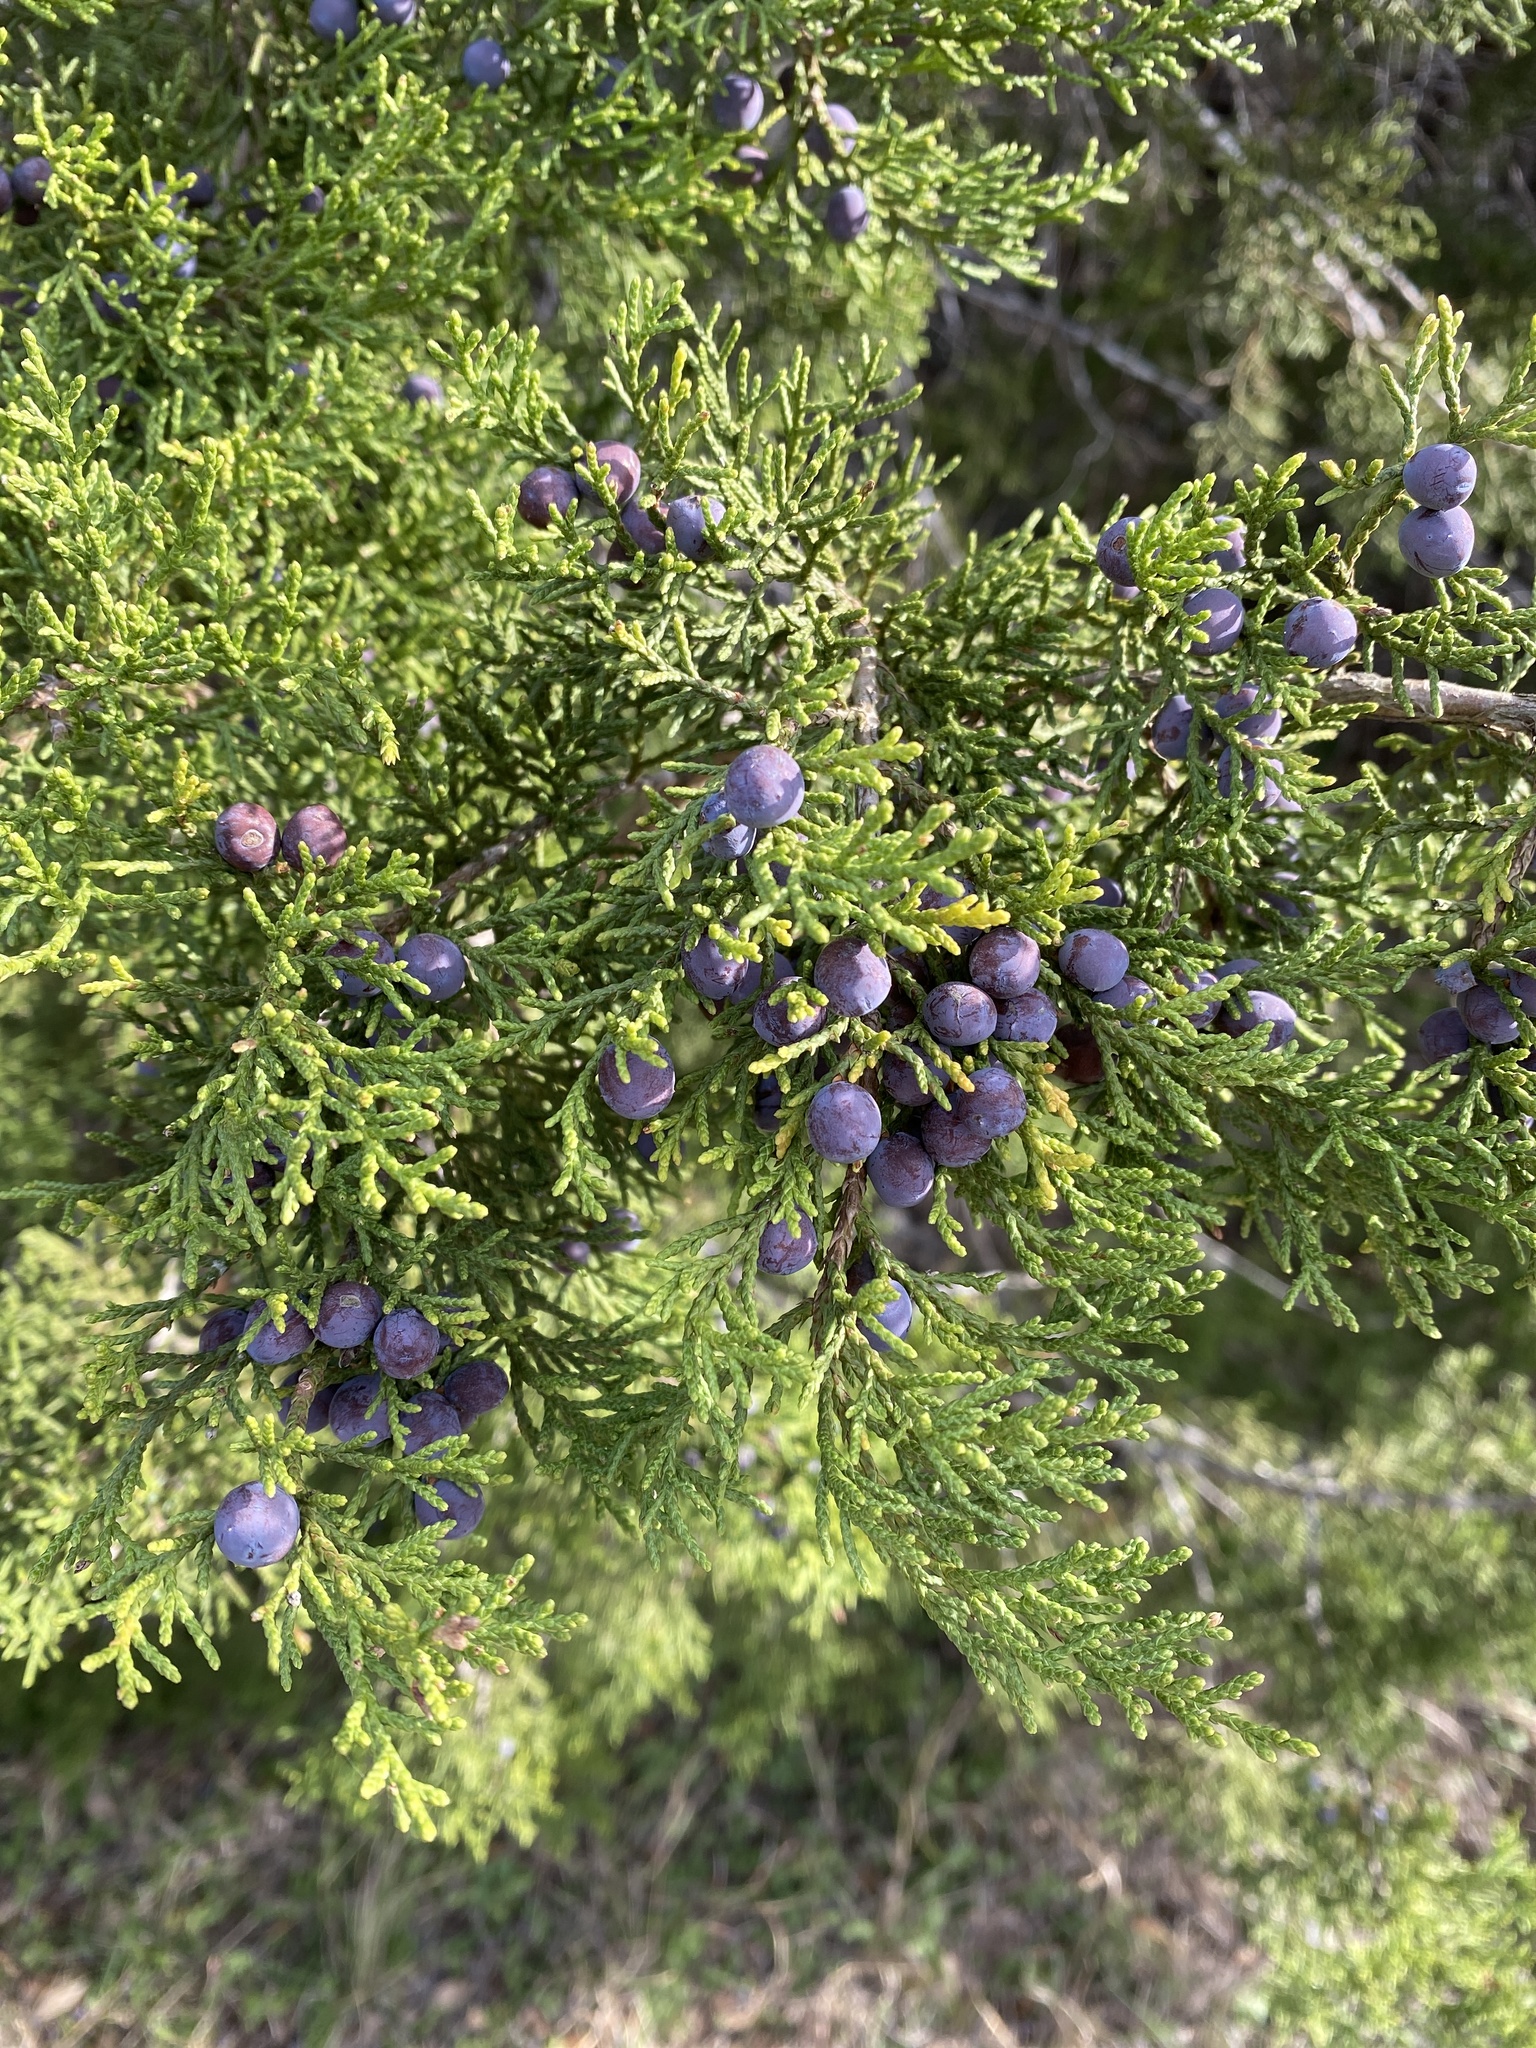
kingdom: Plantae
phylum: Tracheophyta
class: Pinopsida
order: Pinales
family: Cupressaceae
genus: Juniperus
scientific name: Juniperus ashei
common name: Mexican juniper
